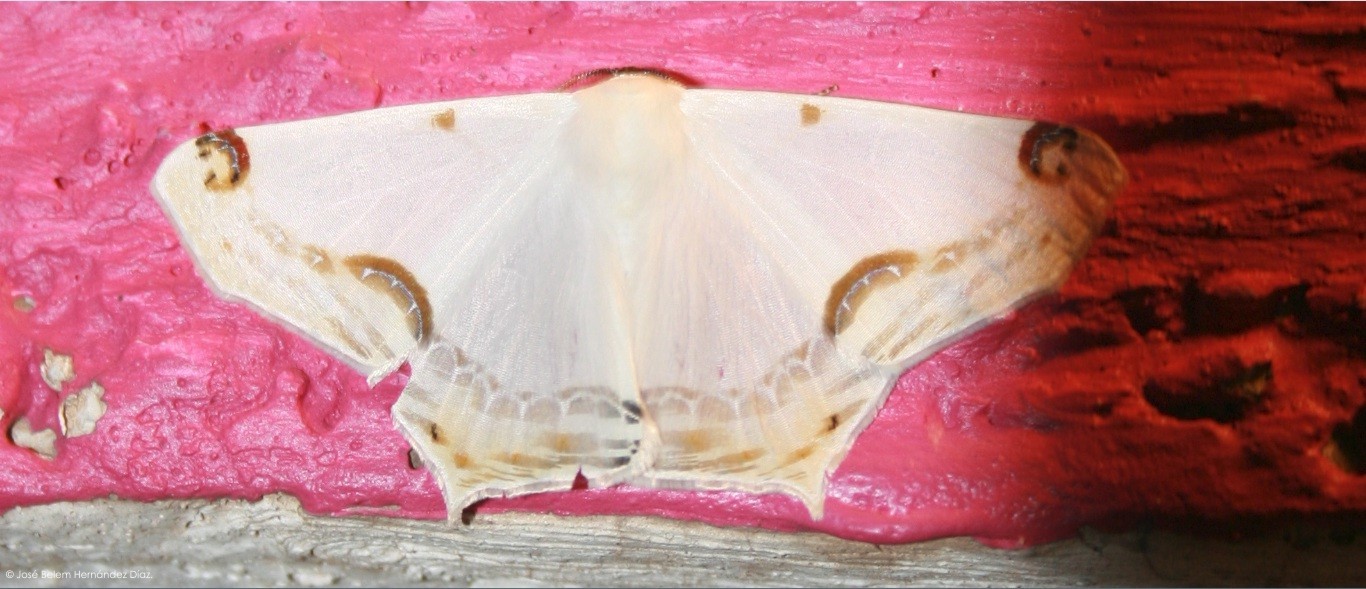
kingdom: Animalia
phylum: Arthropoda
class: Insecta
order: Lepidoptera
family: Geometridae
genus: Sericoptera
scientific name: Sericoptera mahometaria
